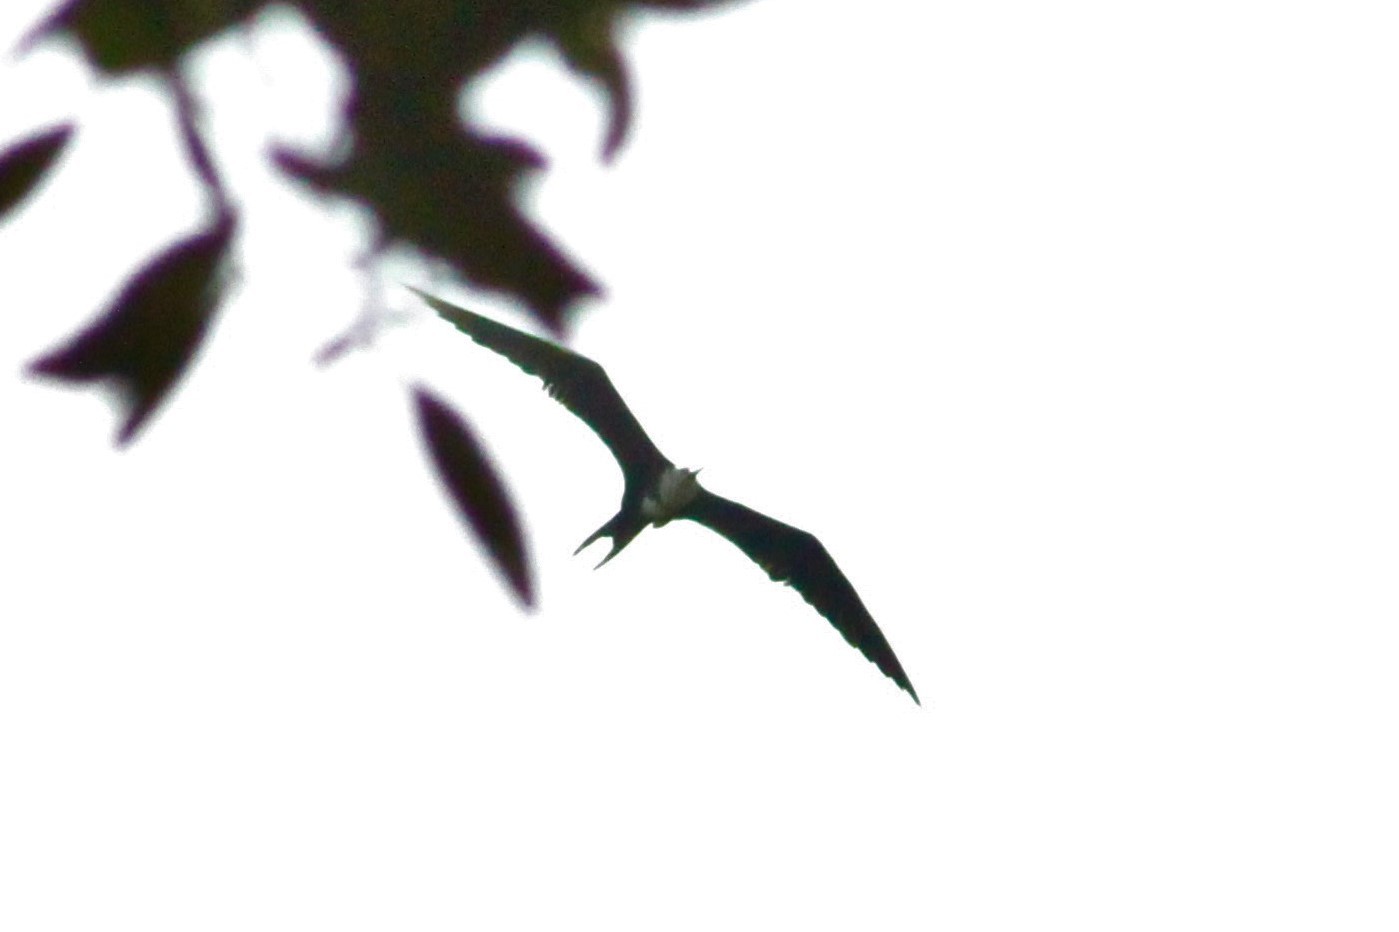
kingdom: Animalia
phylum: Chordata
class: Aves
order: Suliformes
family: Fregatidae
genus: Fregata
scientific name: Fregata magnificens
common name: Magnificent frigatebird
